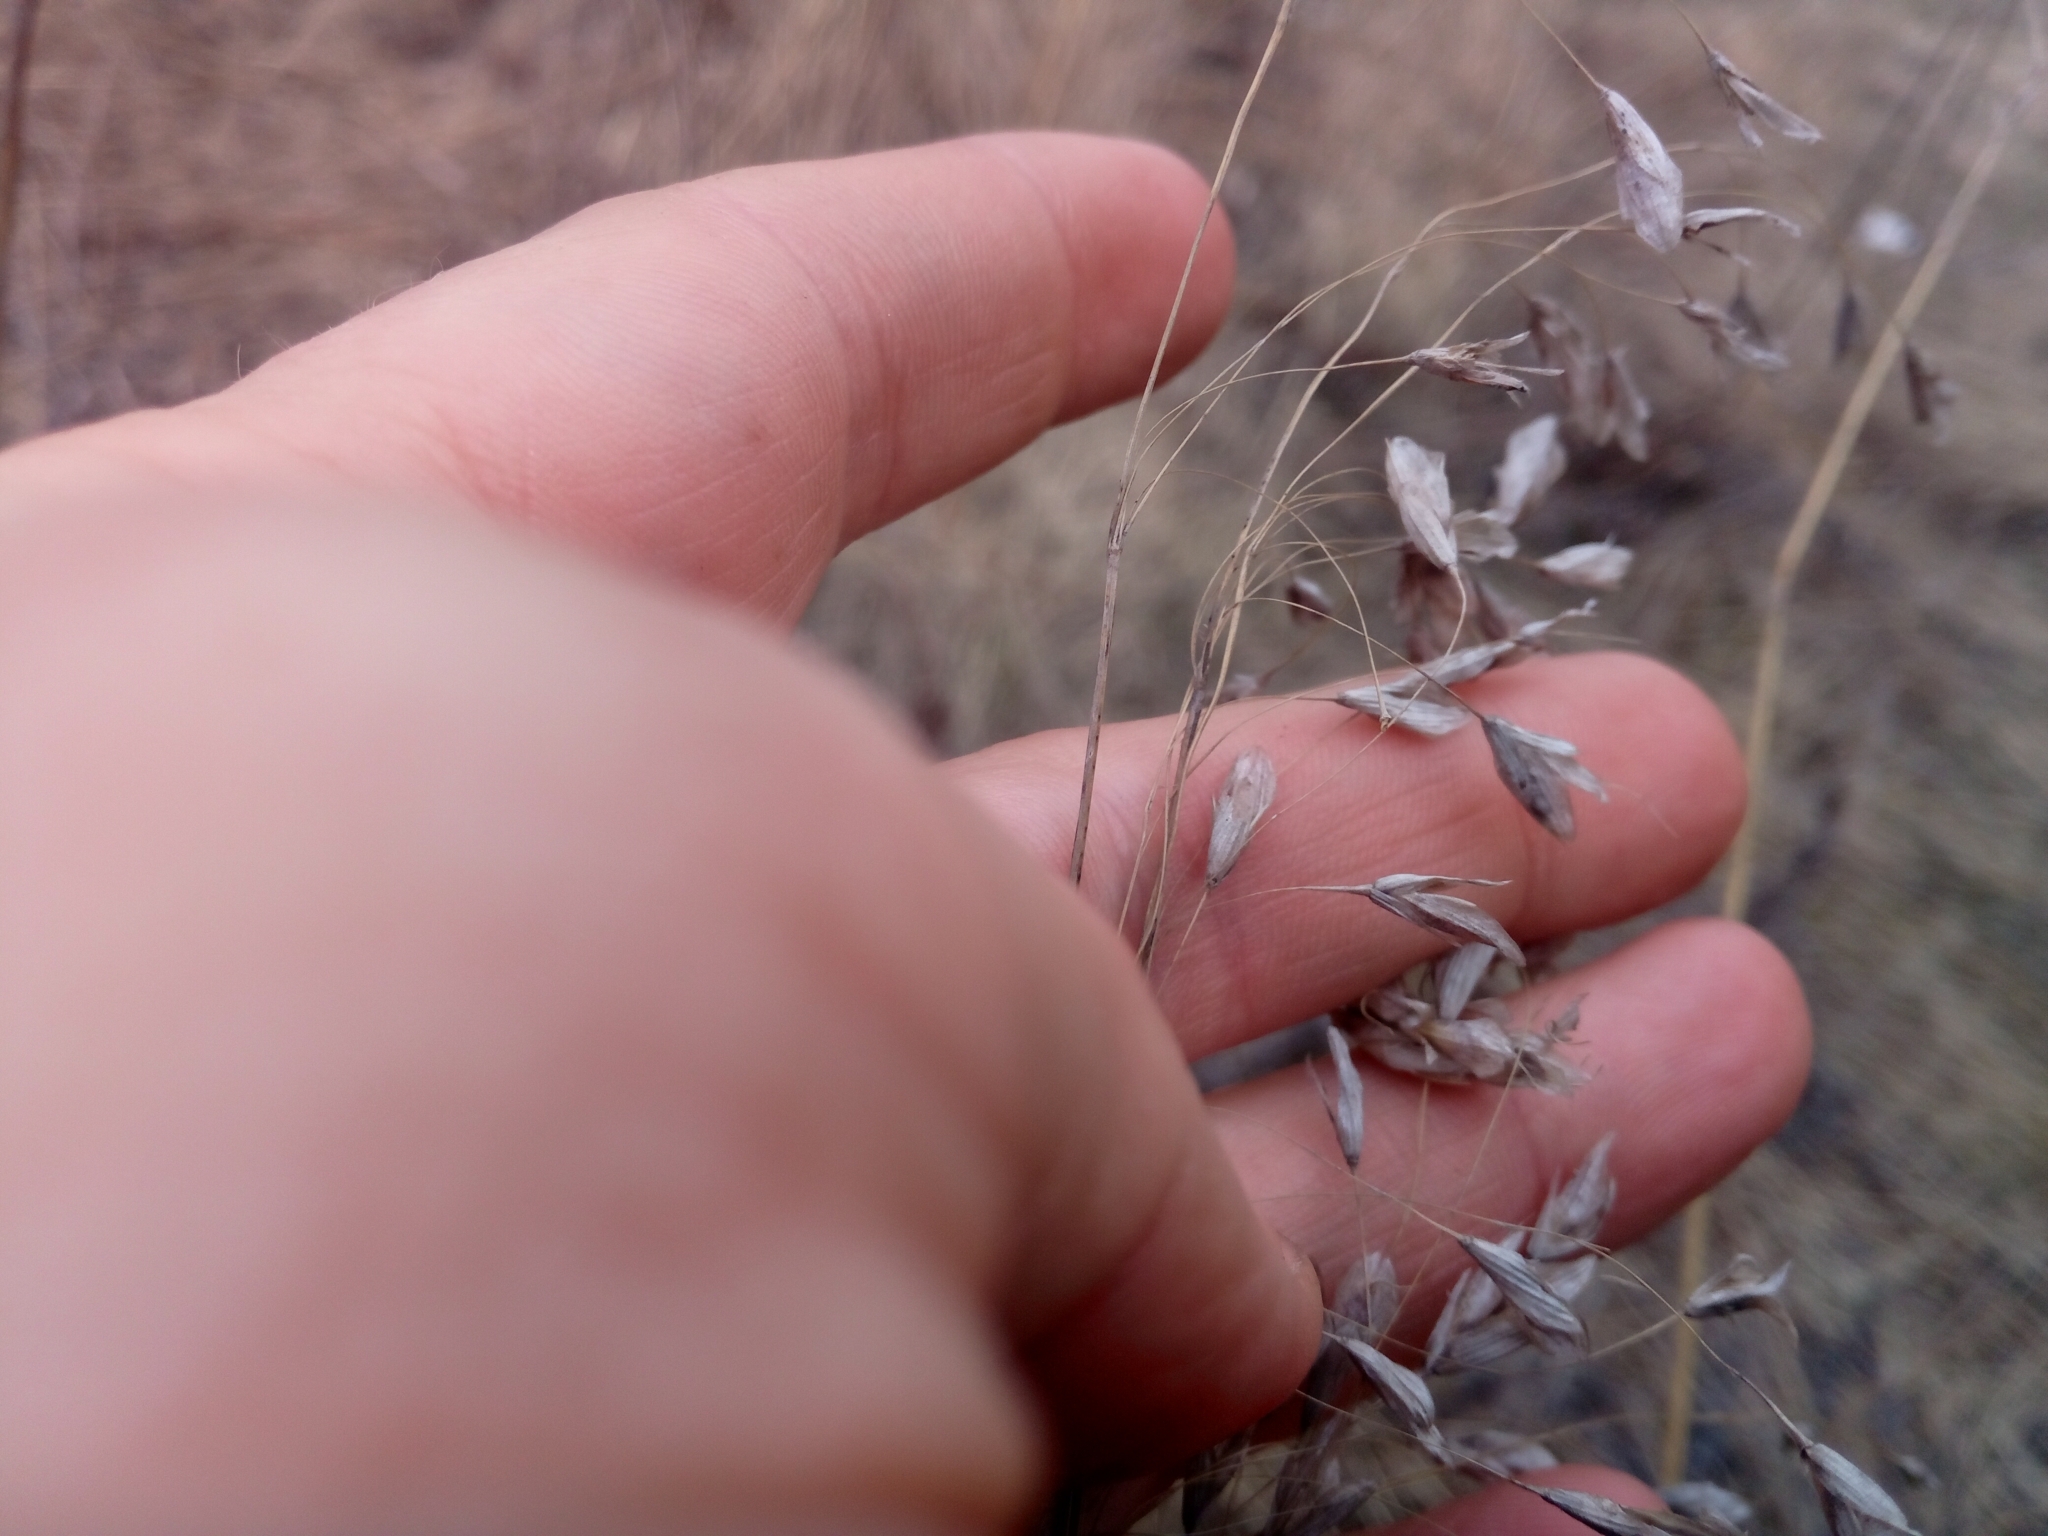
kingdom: Plantae
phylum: Tracheophyta
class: Liliopsida
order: Poales
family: Poaceae
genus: Bromus
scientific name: Bromus squarrosus
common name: Corn brome
